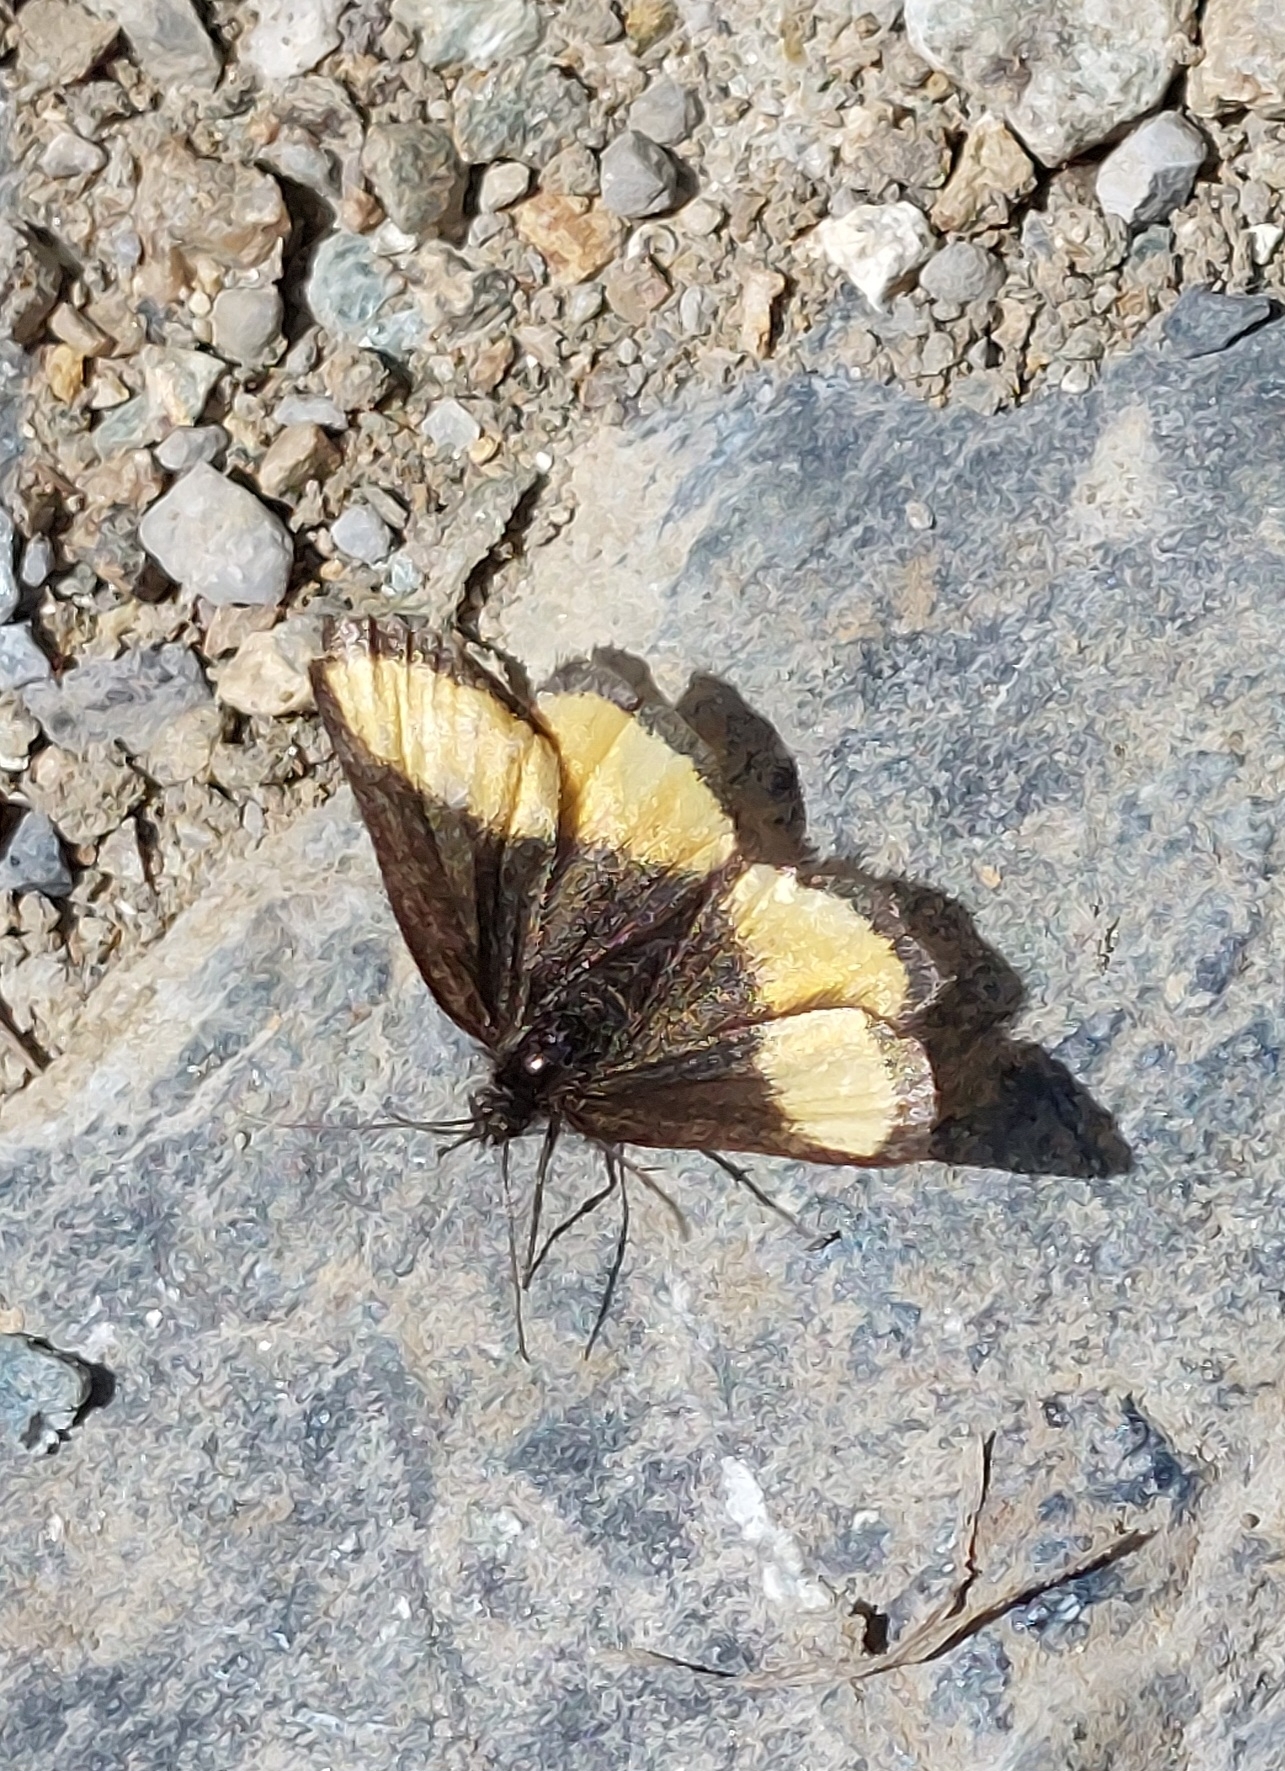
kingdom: Animalia
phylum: Arthropoda
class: Insecta
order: Lepidoptera
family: Geometridae
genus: Psodos
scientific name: Psodos quadrifaria
